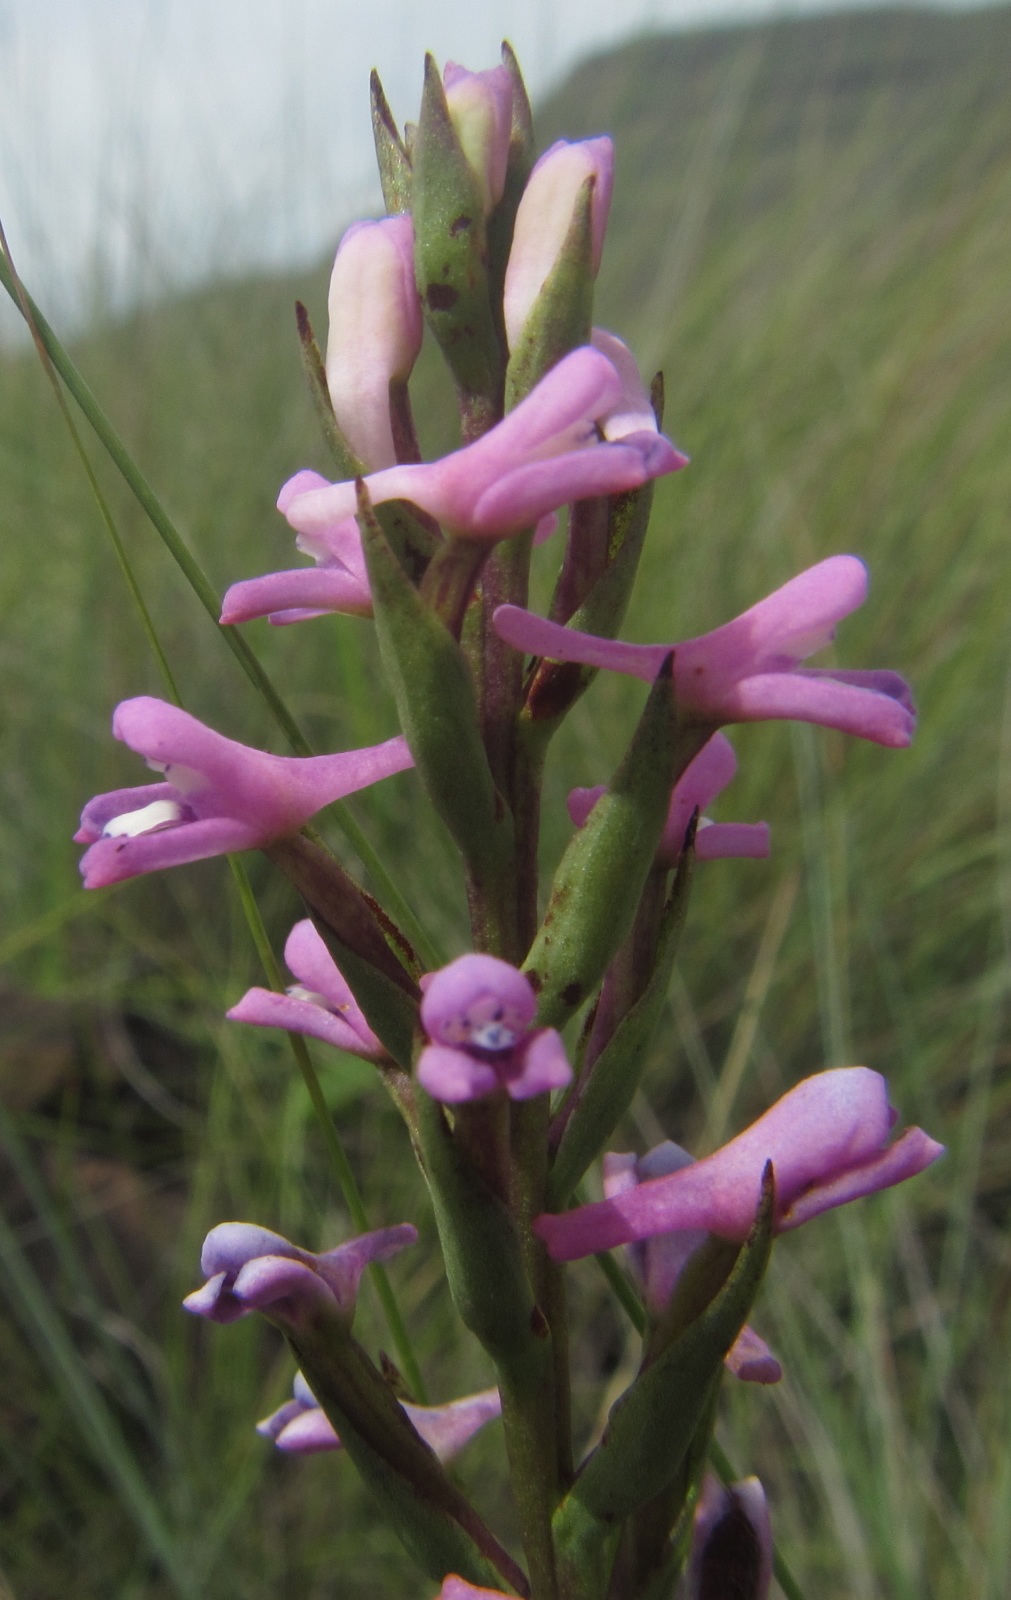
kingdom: Plantae
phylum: Tracheophyta
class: Liliopsida
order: Asparagales
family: Orchidaceae
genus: Disa
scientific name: Disa stachyoides
